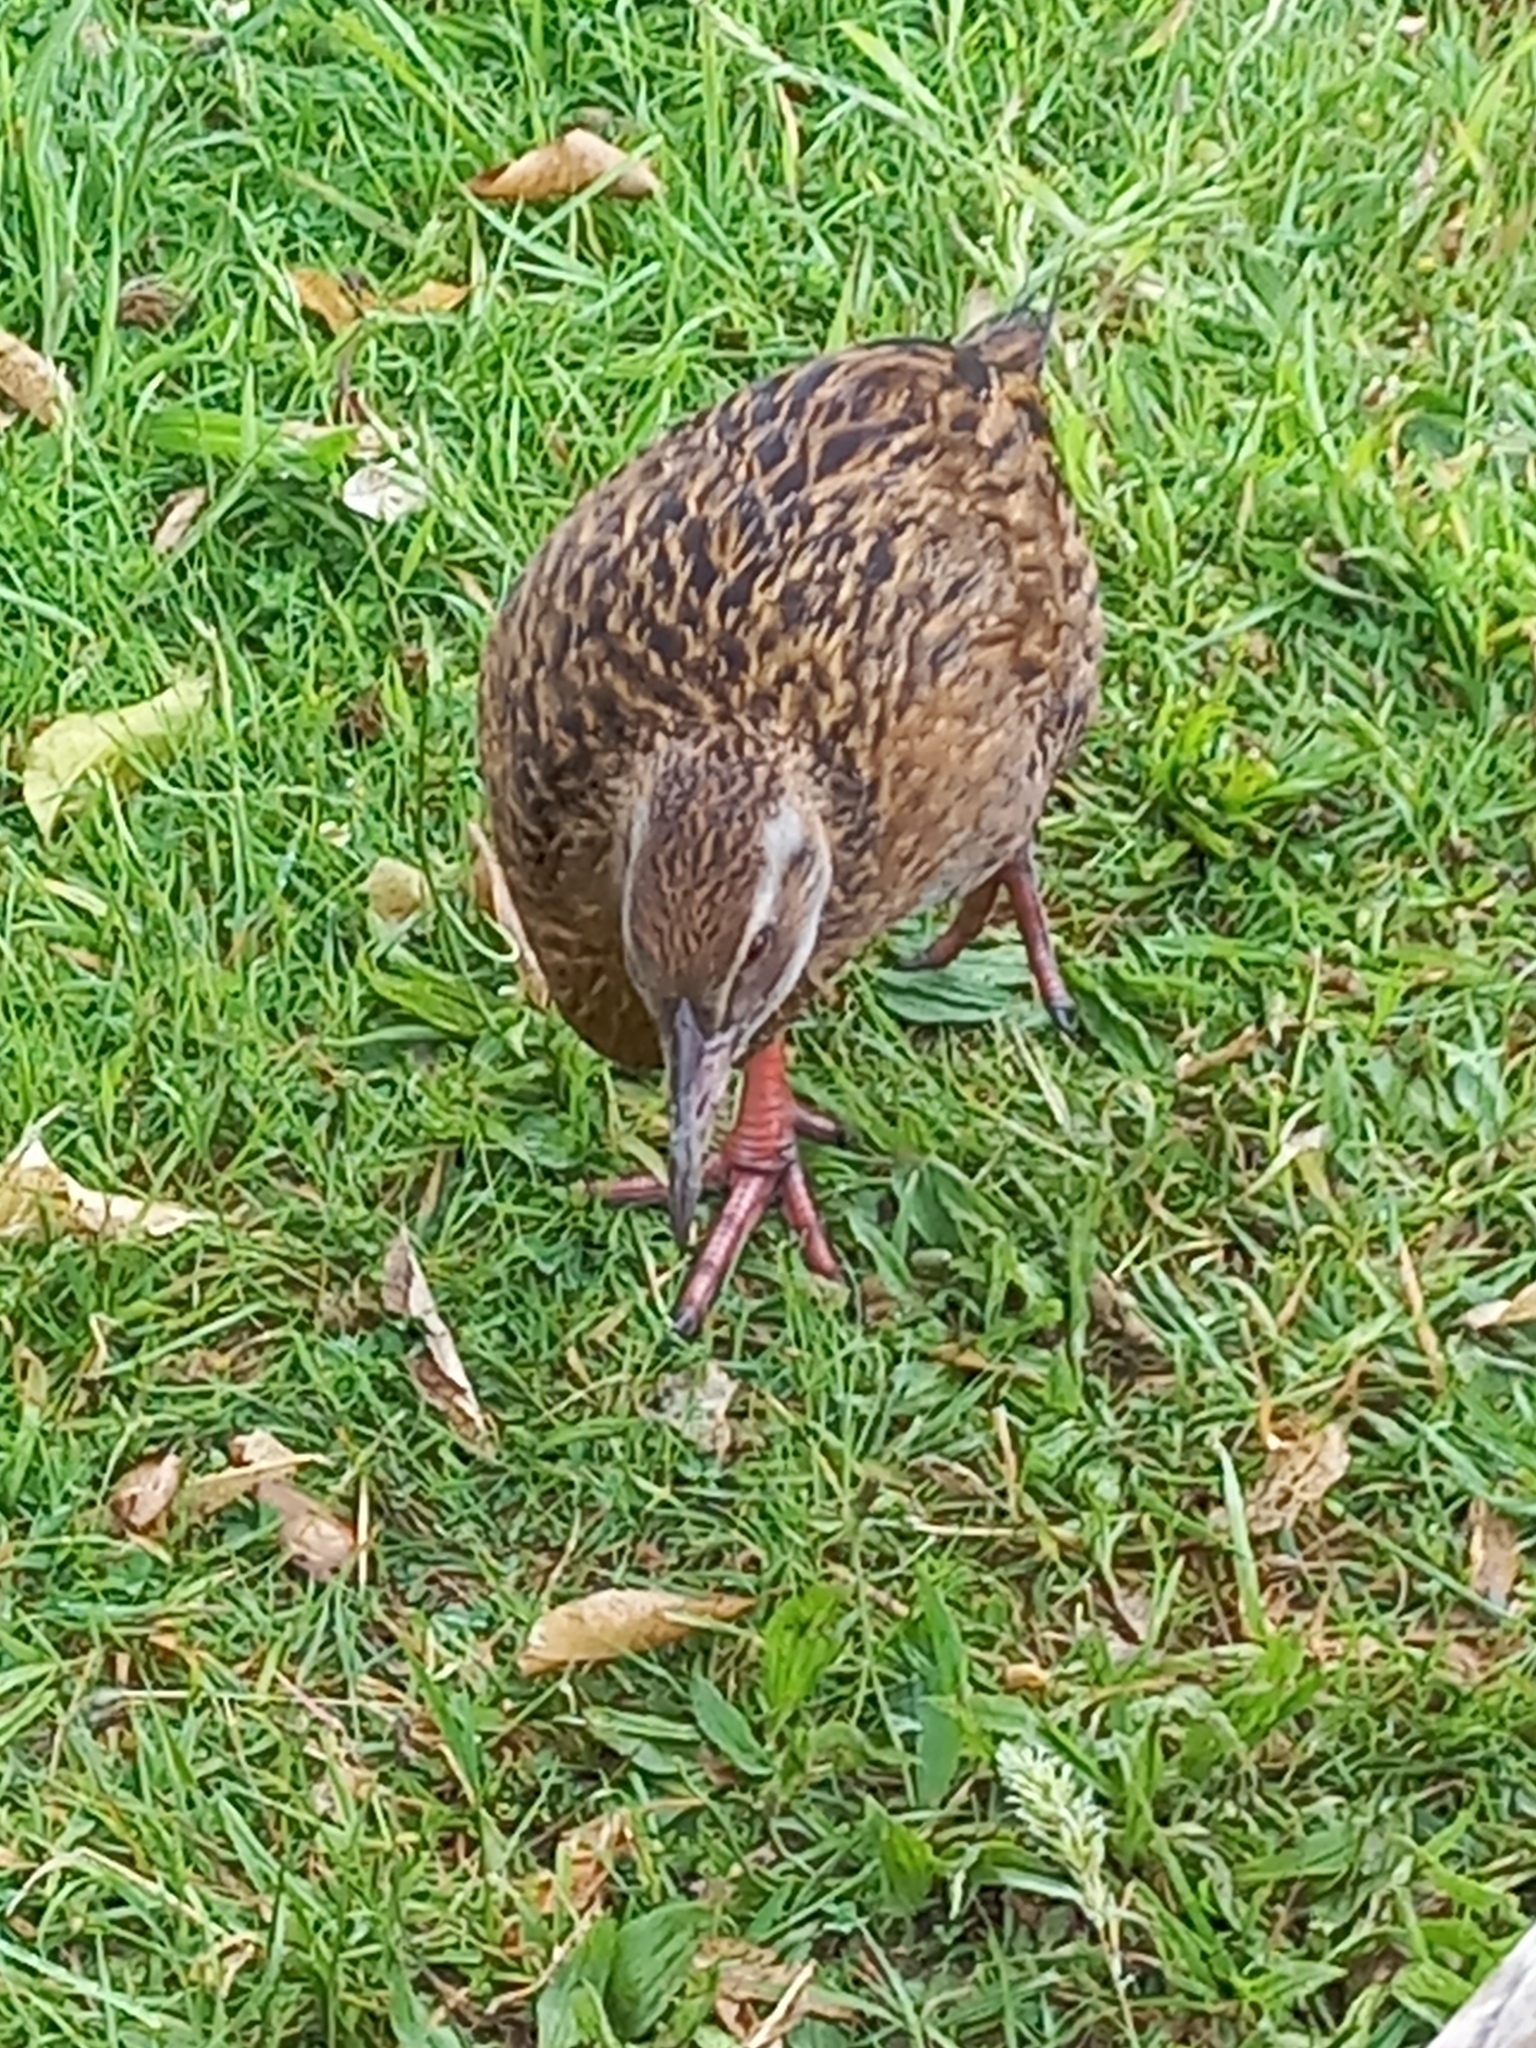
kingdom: Animalia
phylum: Chordata
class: Aves
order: Gruiformes
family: Rallidae
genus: Gallirallus
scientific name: Gallirallus australis
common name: Weka
